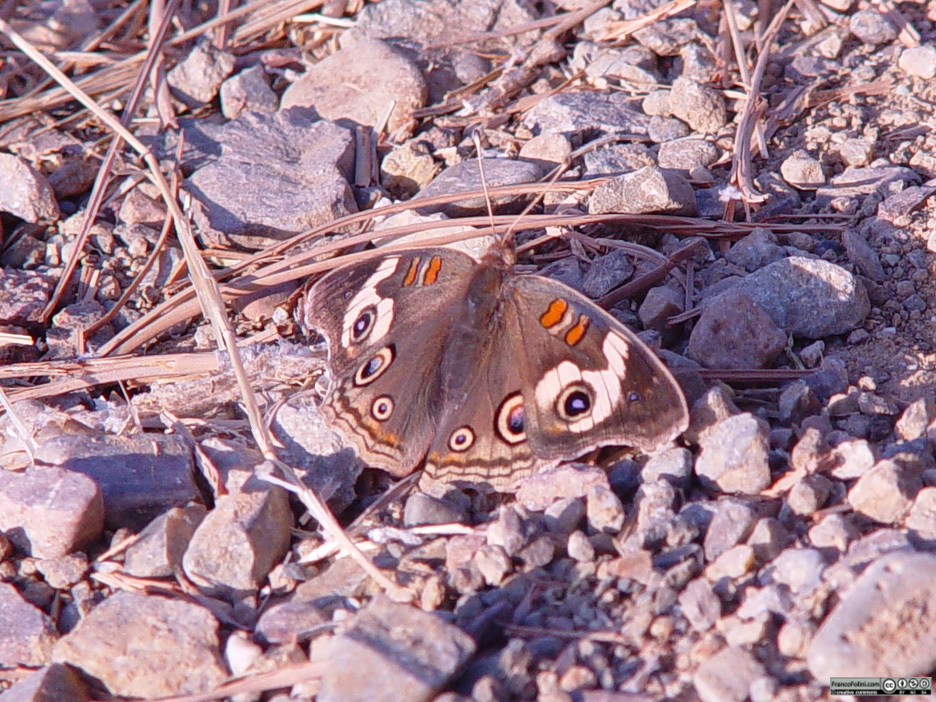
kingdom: Animalia
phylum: Arthropoda
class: Insecta
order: Lepidoptera
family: Nymphalidae
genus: Junonia
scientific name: Junonia grisea
